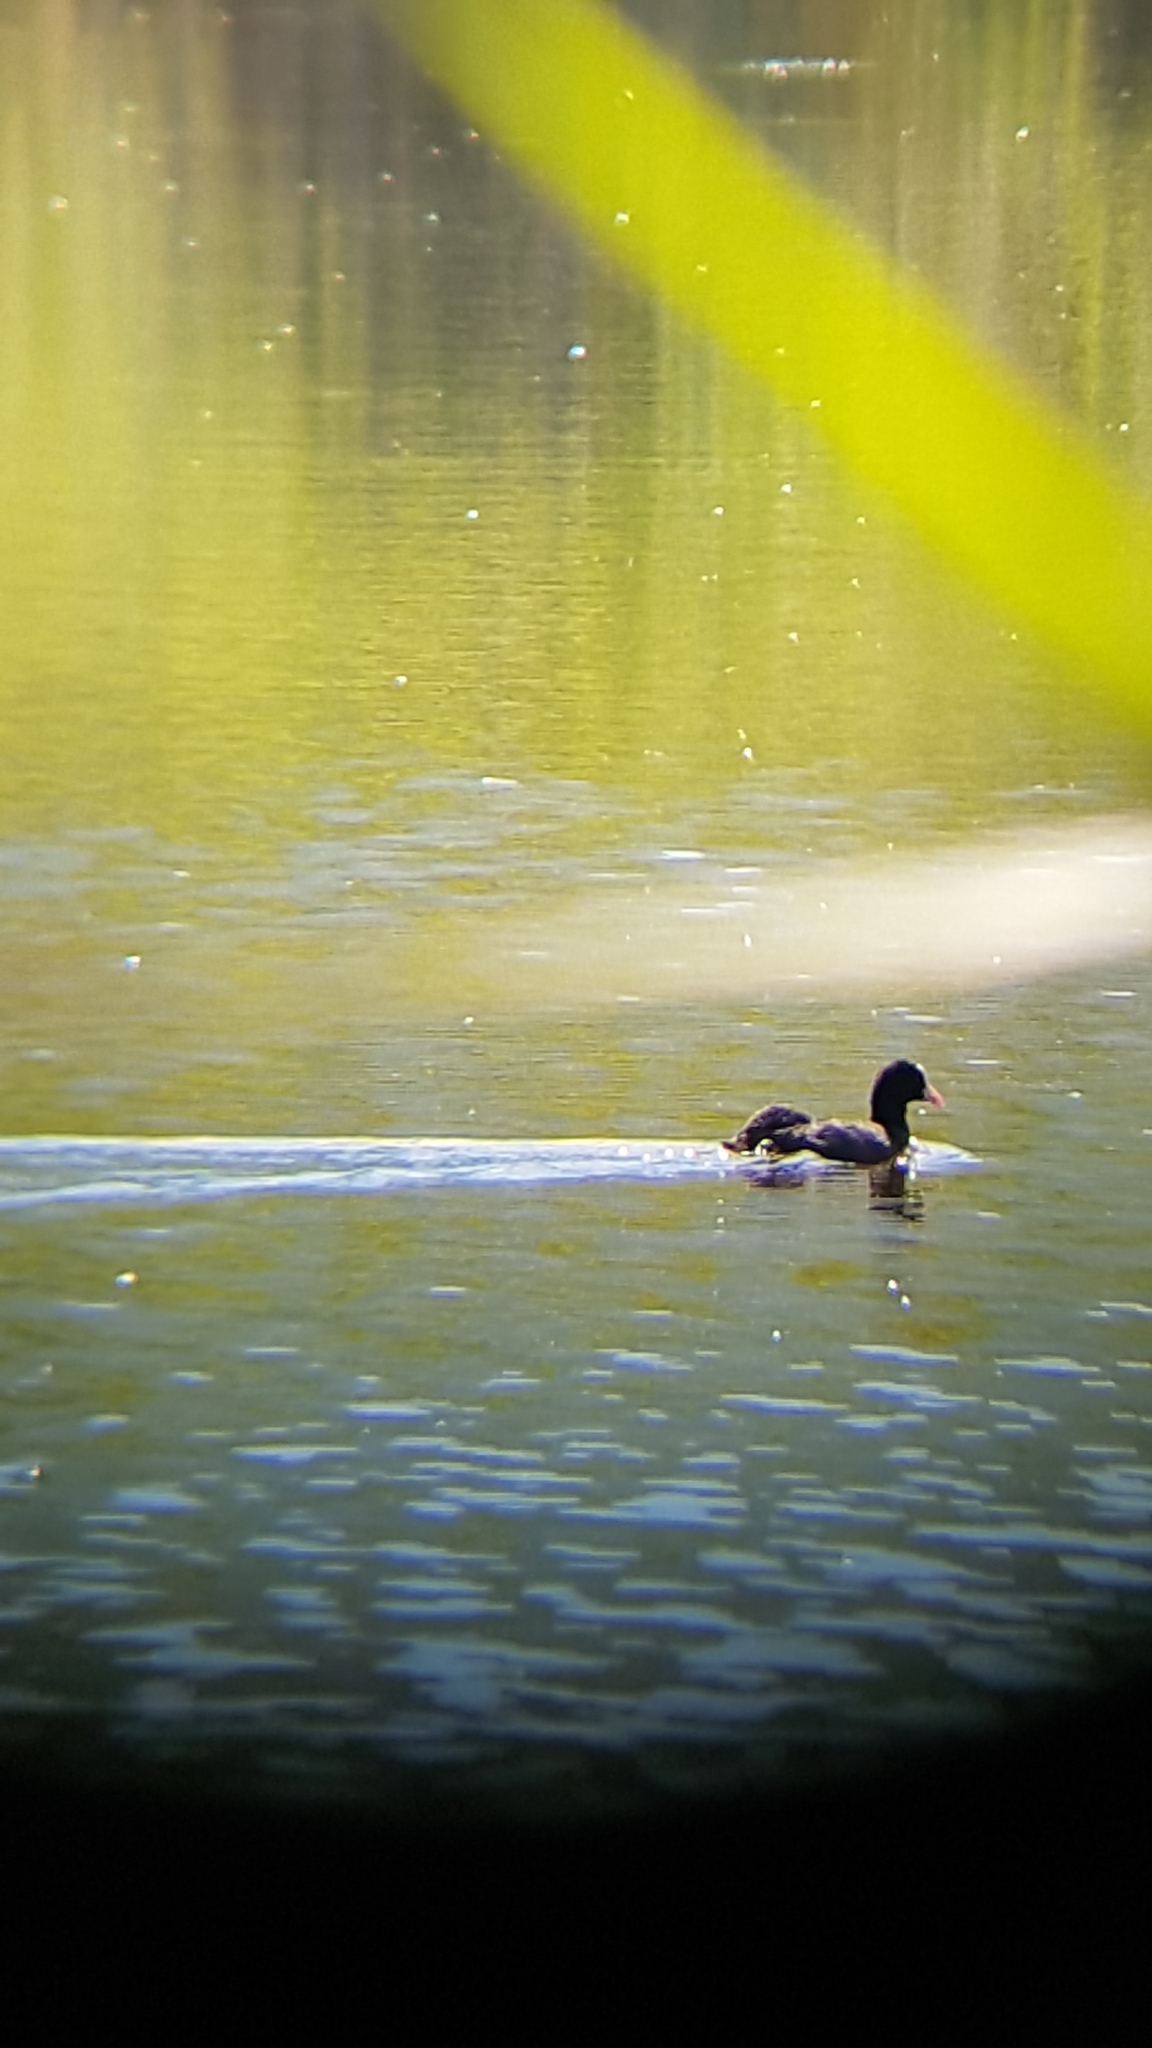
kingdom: Animalia
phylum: Chordata
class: Aves
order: Gruiformes
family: Rallidae
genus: Fulica
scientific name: Fulica atra
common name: Eurasian coot
